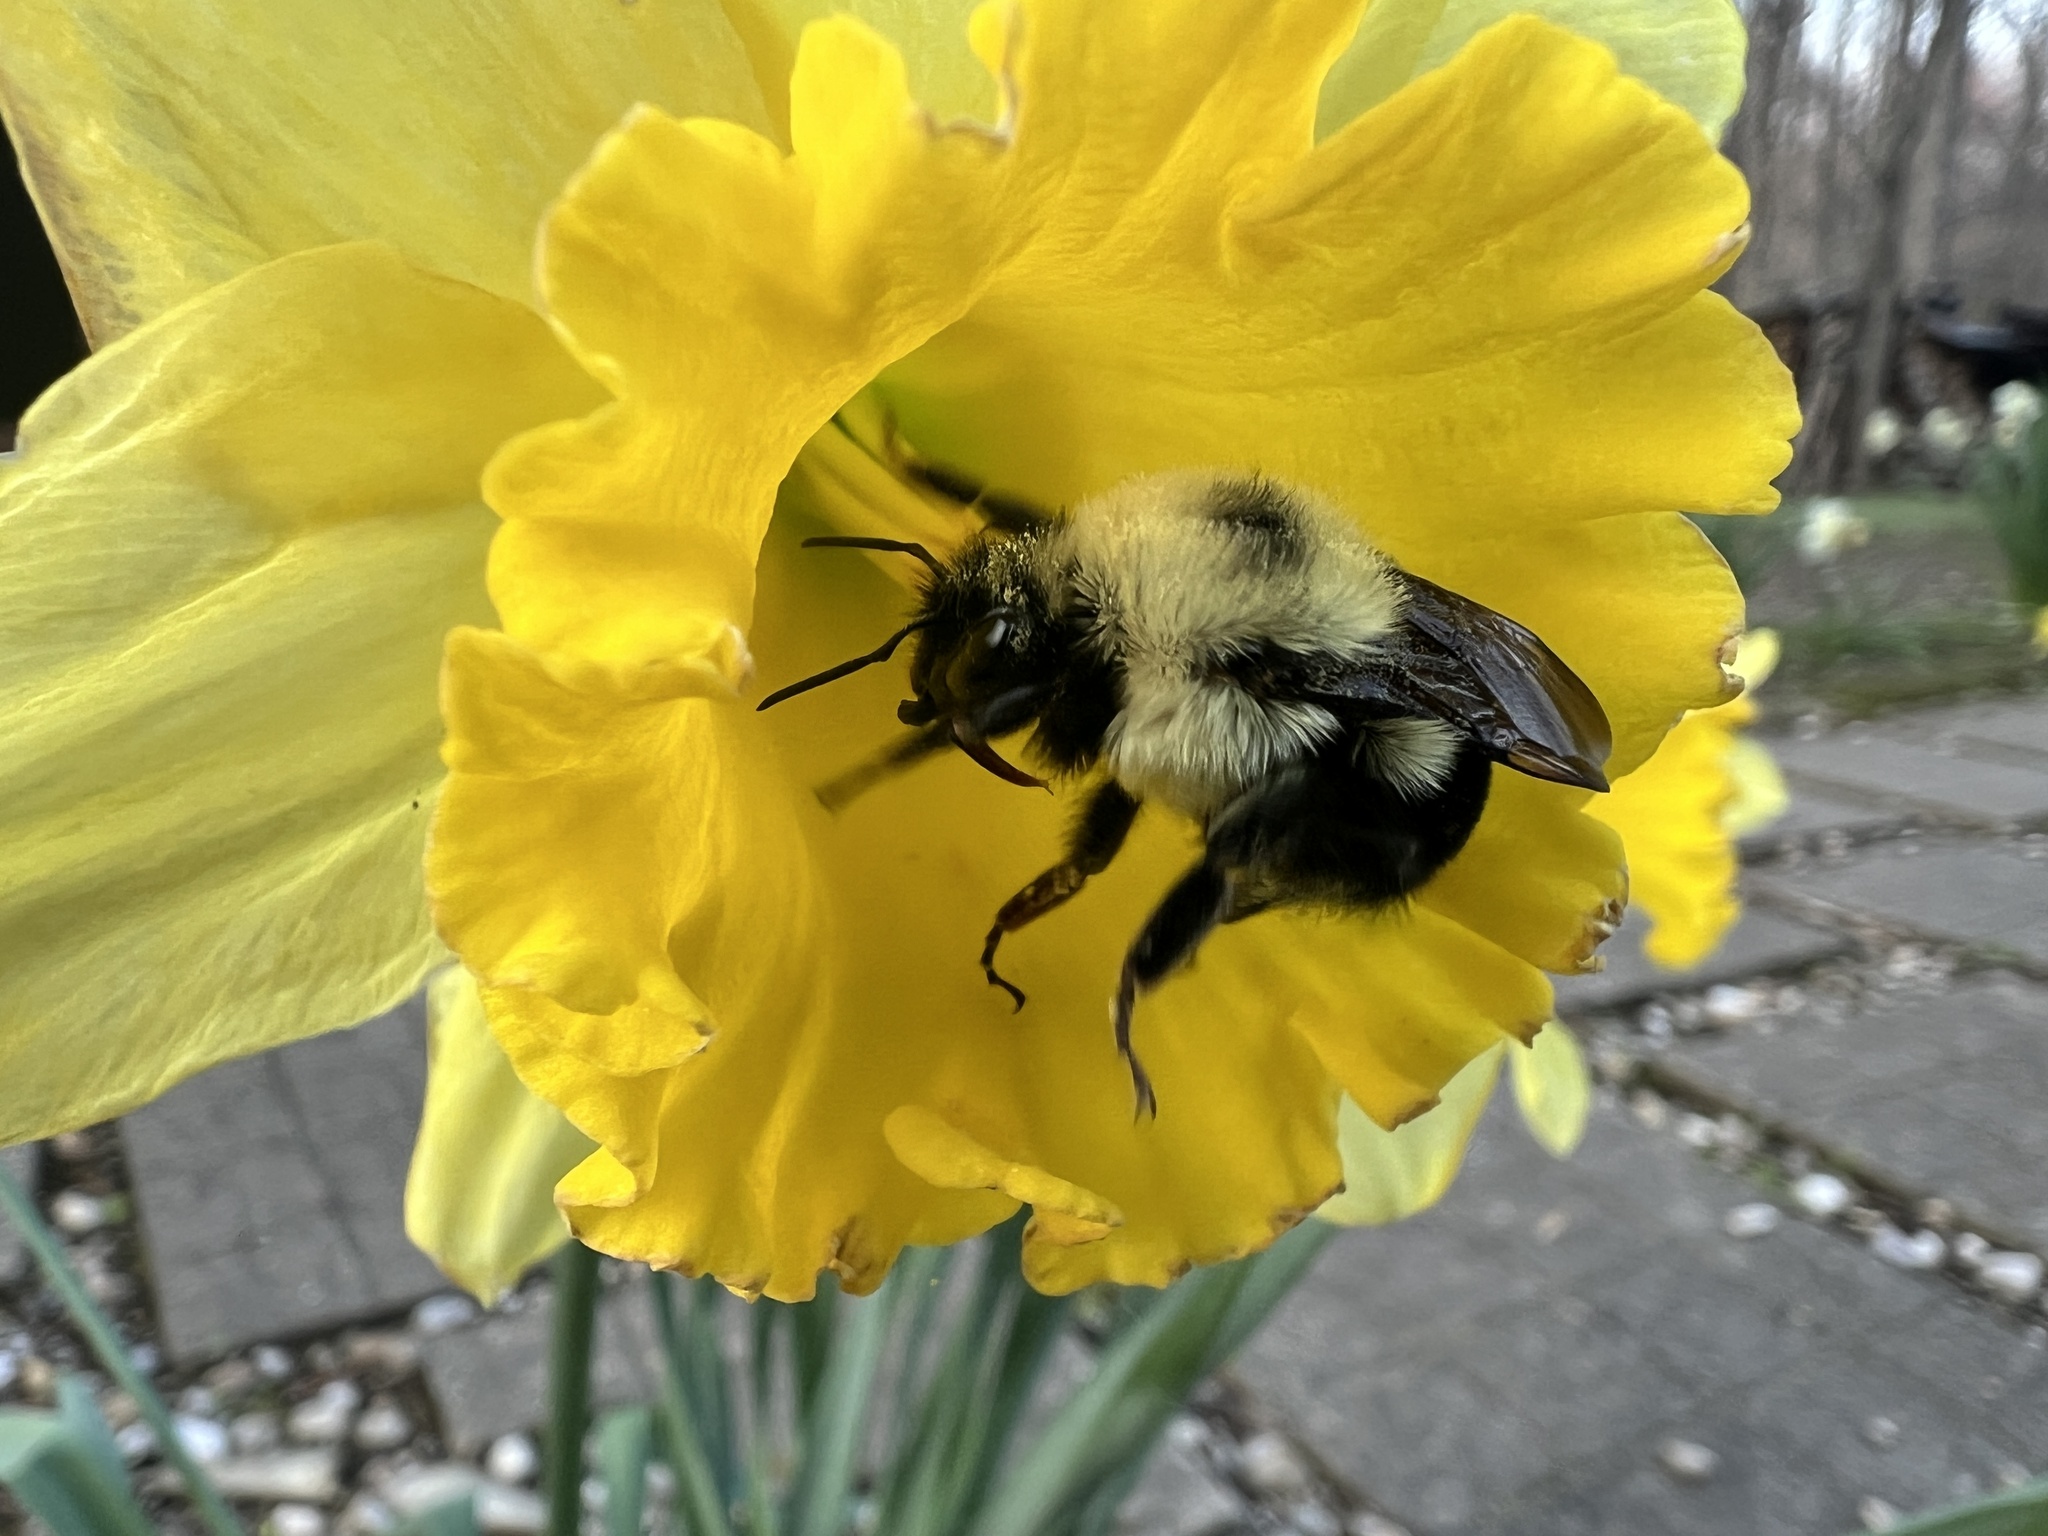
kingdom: Animalia
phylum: Arthropoda
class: Insecta
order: Hymenoptera
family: Apidae
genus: Bombus
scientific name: Bombus bimaculatus
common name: Two-spotted bumble bee
